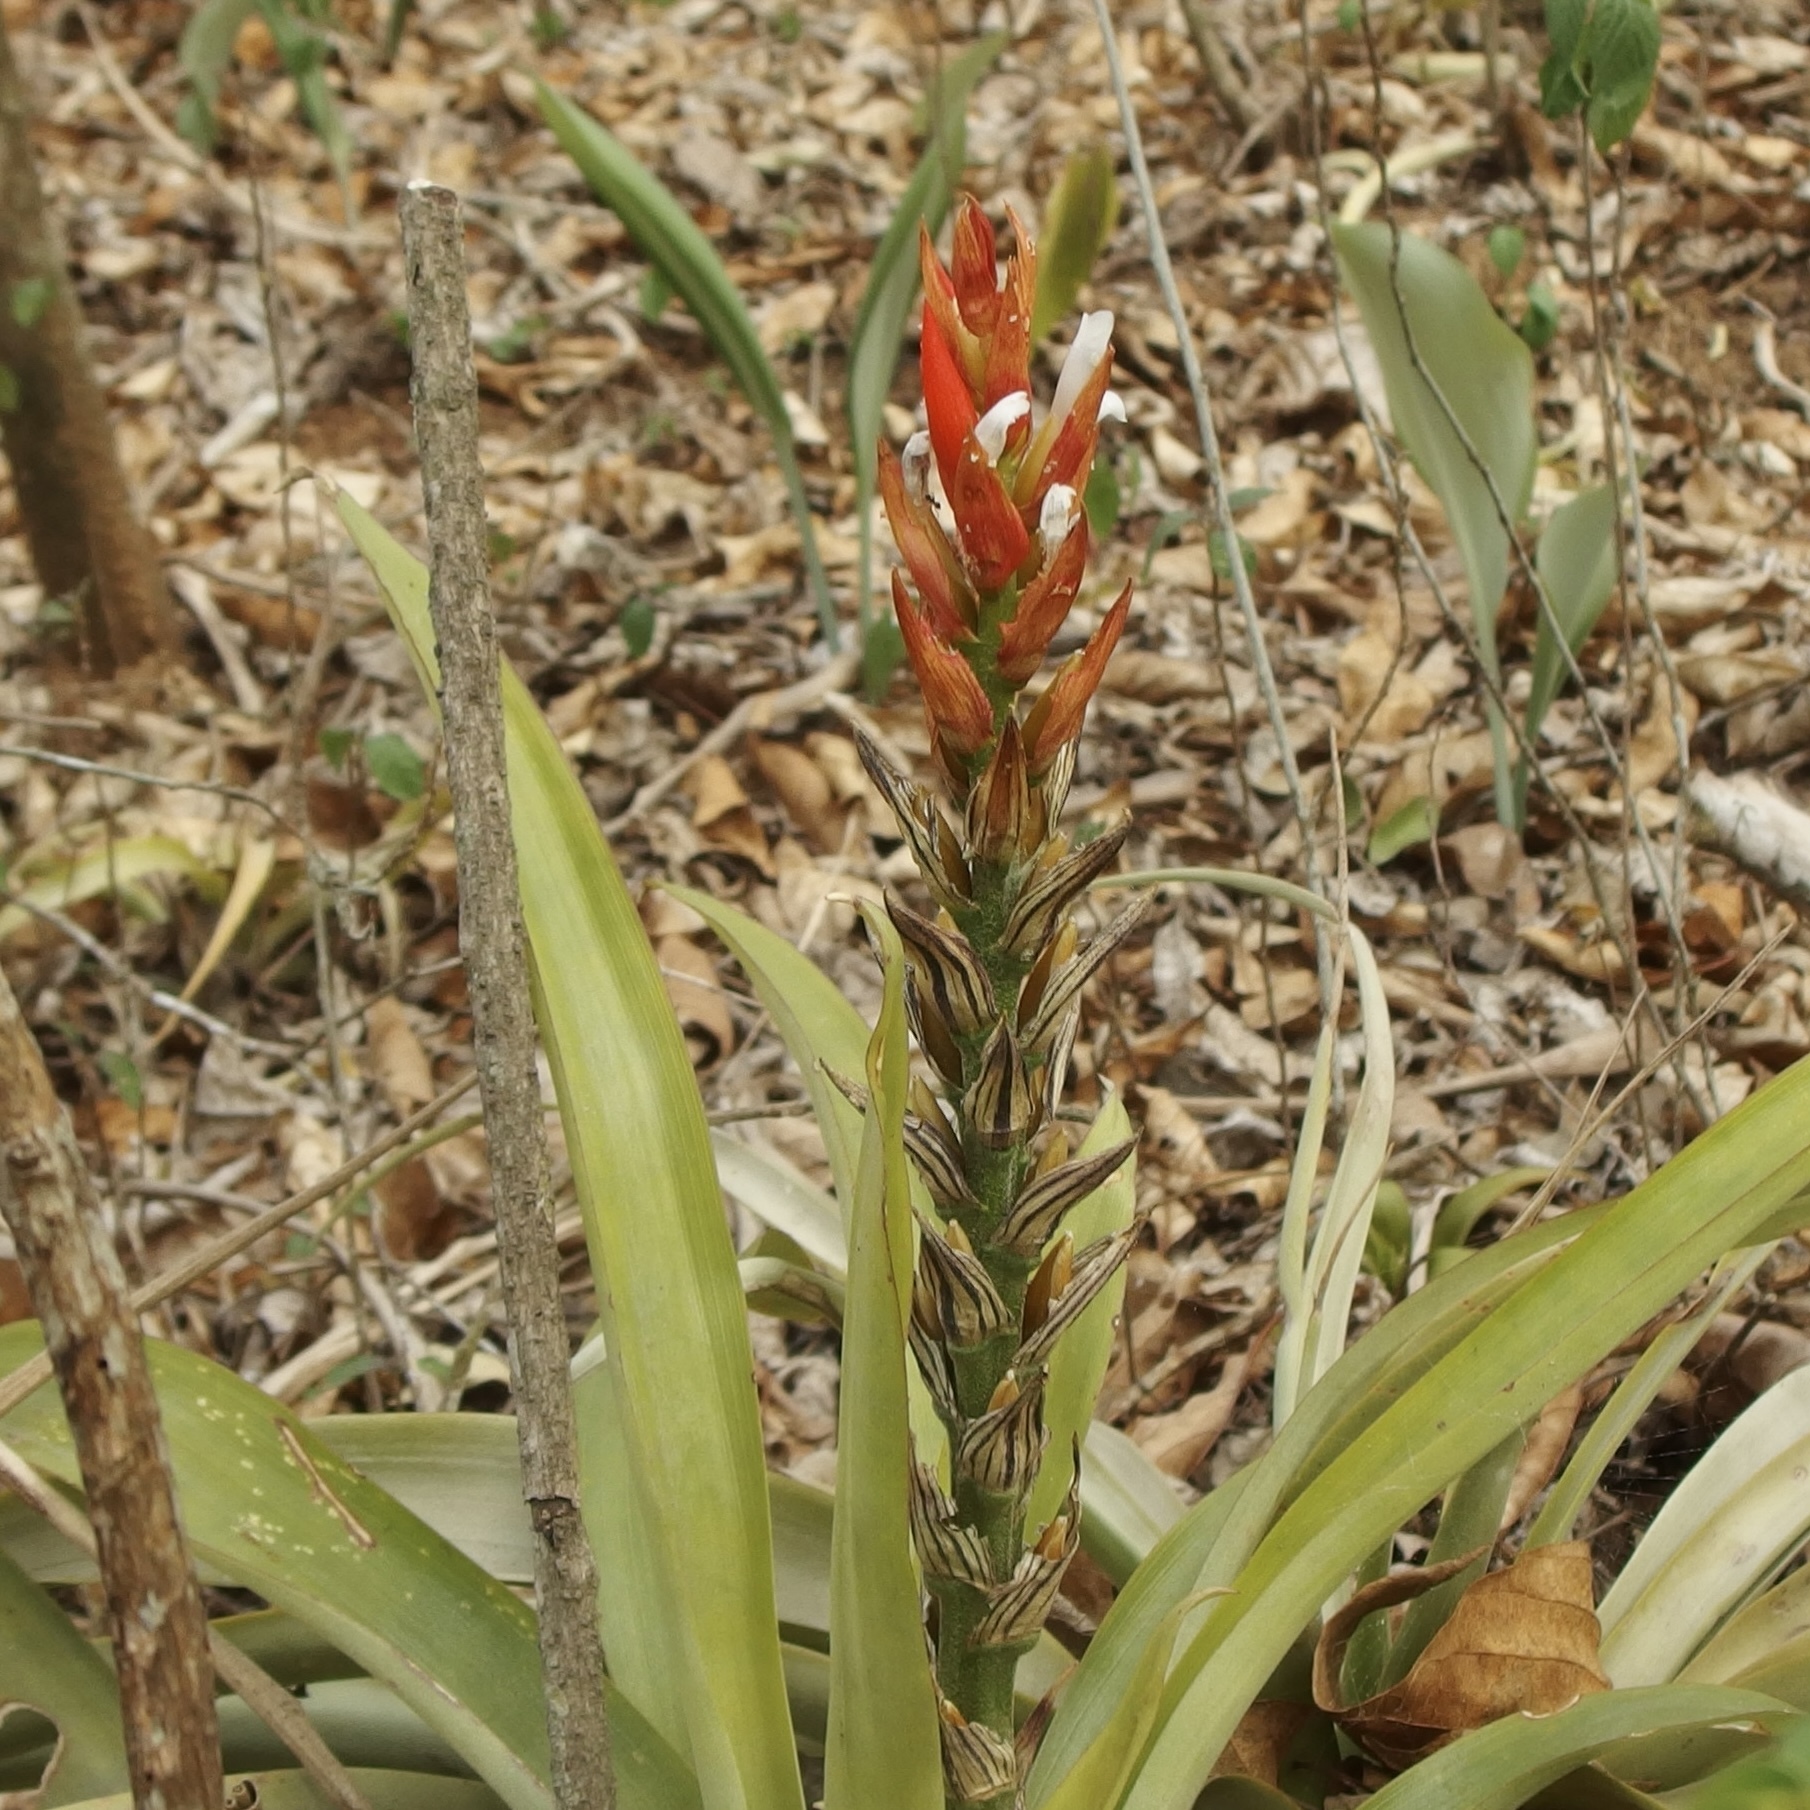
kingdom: Plantae
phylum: Tracheophyta
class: Liliopsida
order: Poales
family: Bromeliaceae
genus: Guzmania
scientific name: Guzmania monostachia
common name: West indian tufted airplant
